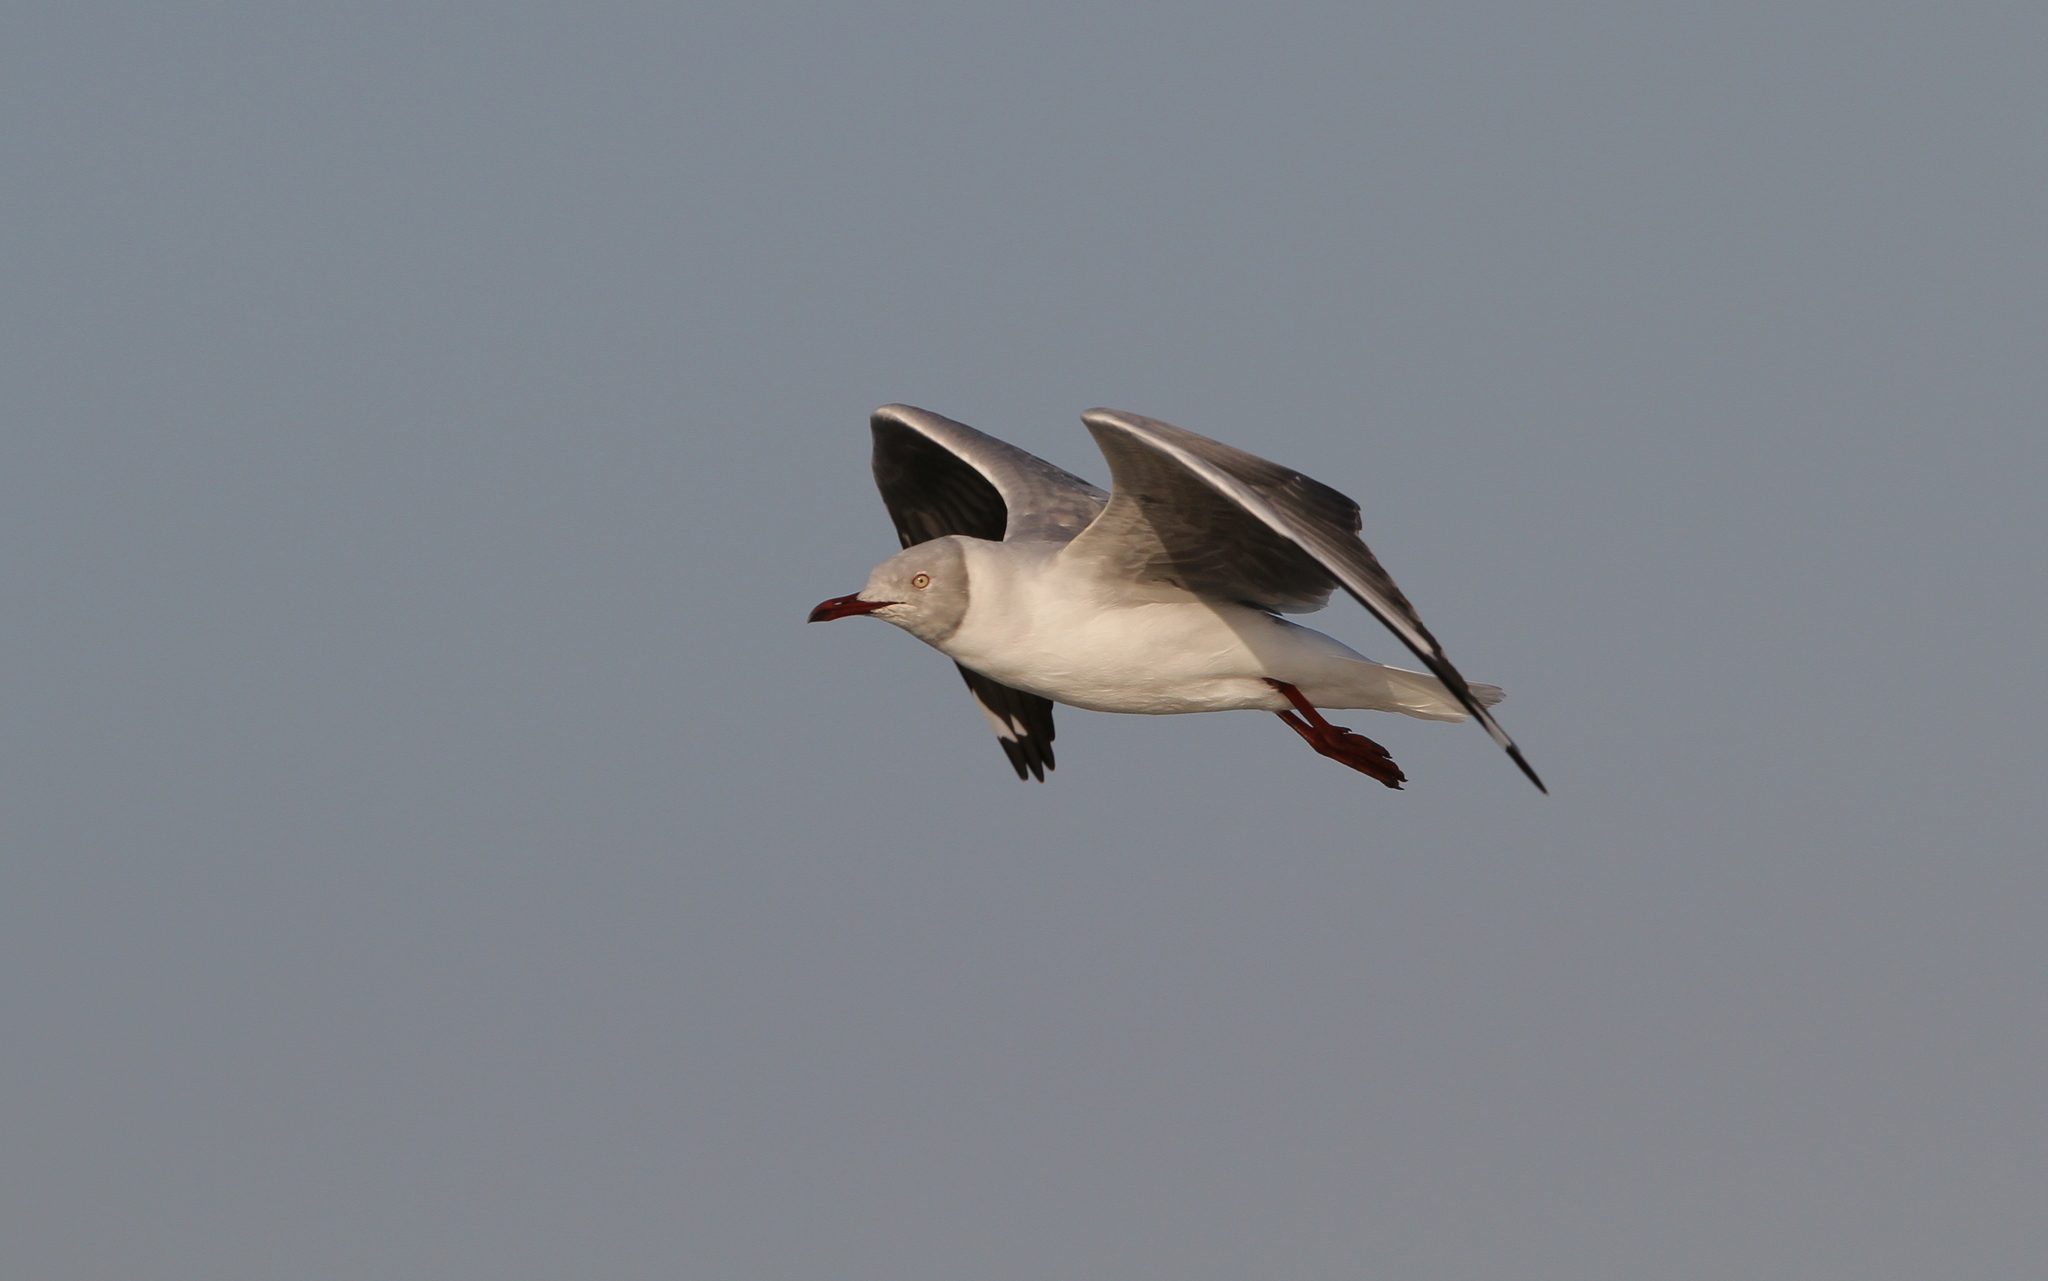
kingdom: Animalia
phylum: Chordata
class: Aves
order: Charadriiformes
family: Laridae
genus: Chroicocephalus
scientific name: Chroicocephalus cirrocephalus
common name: Grey-headed gull
